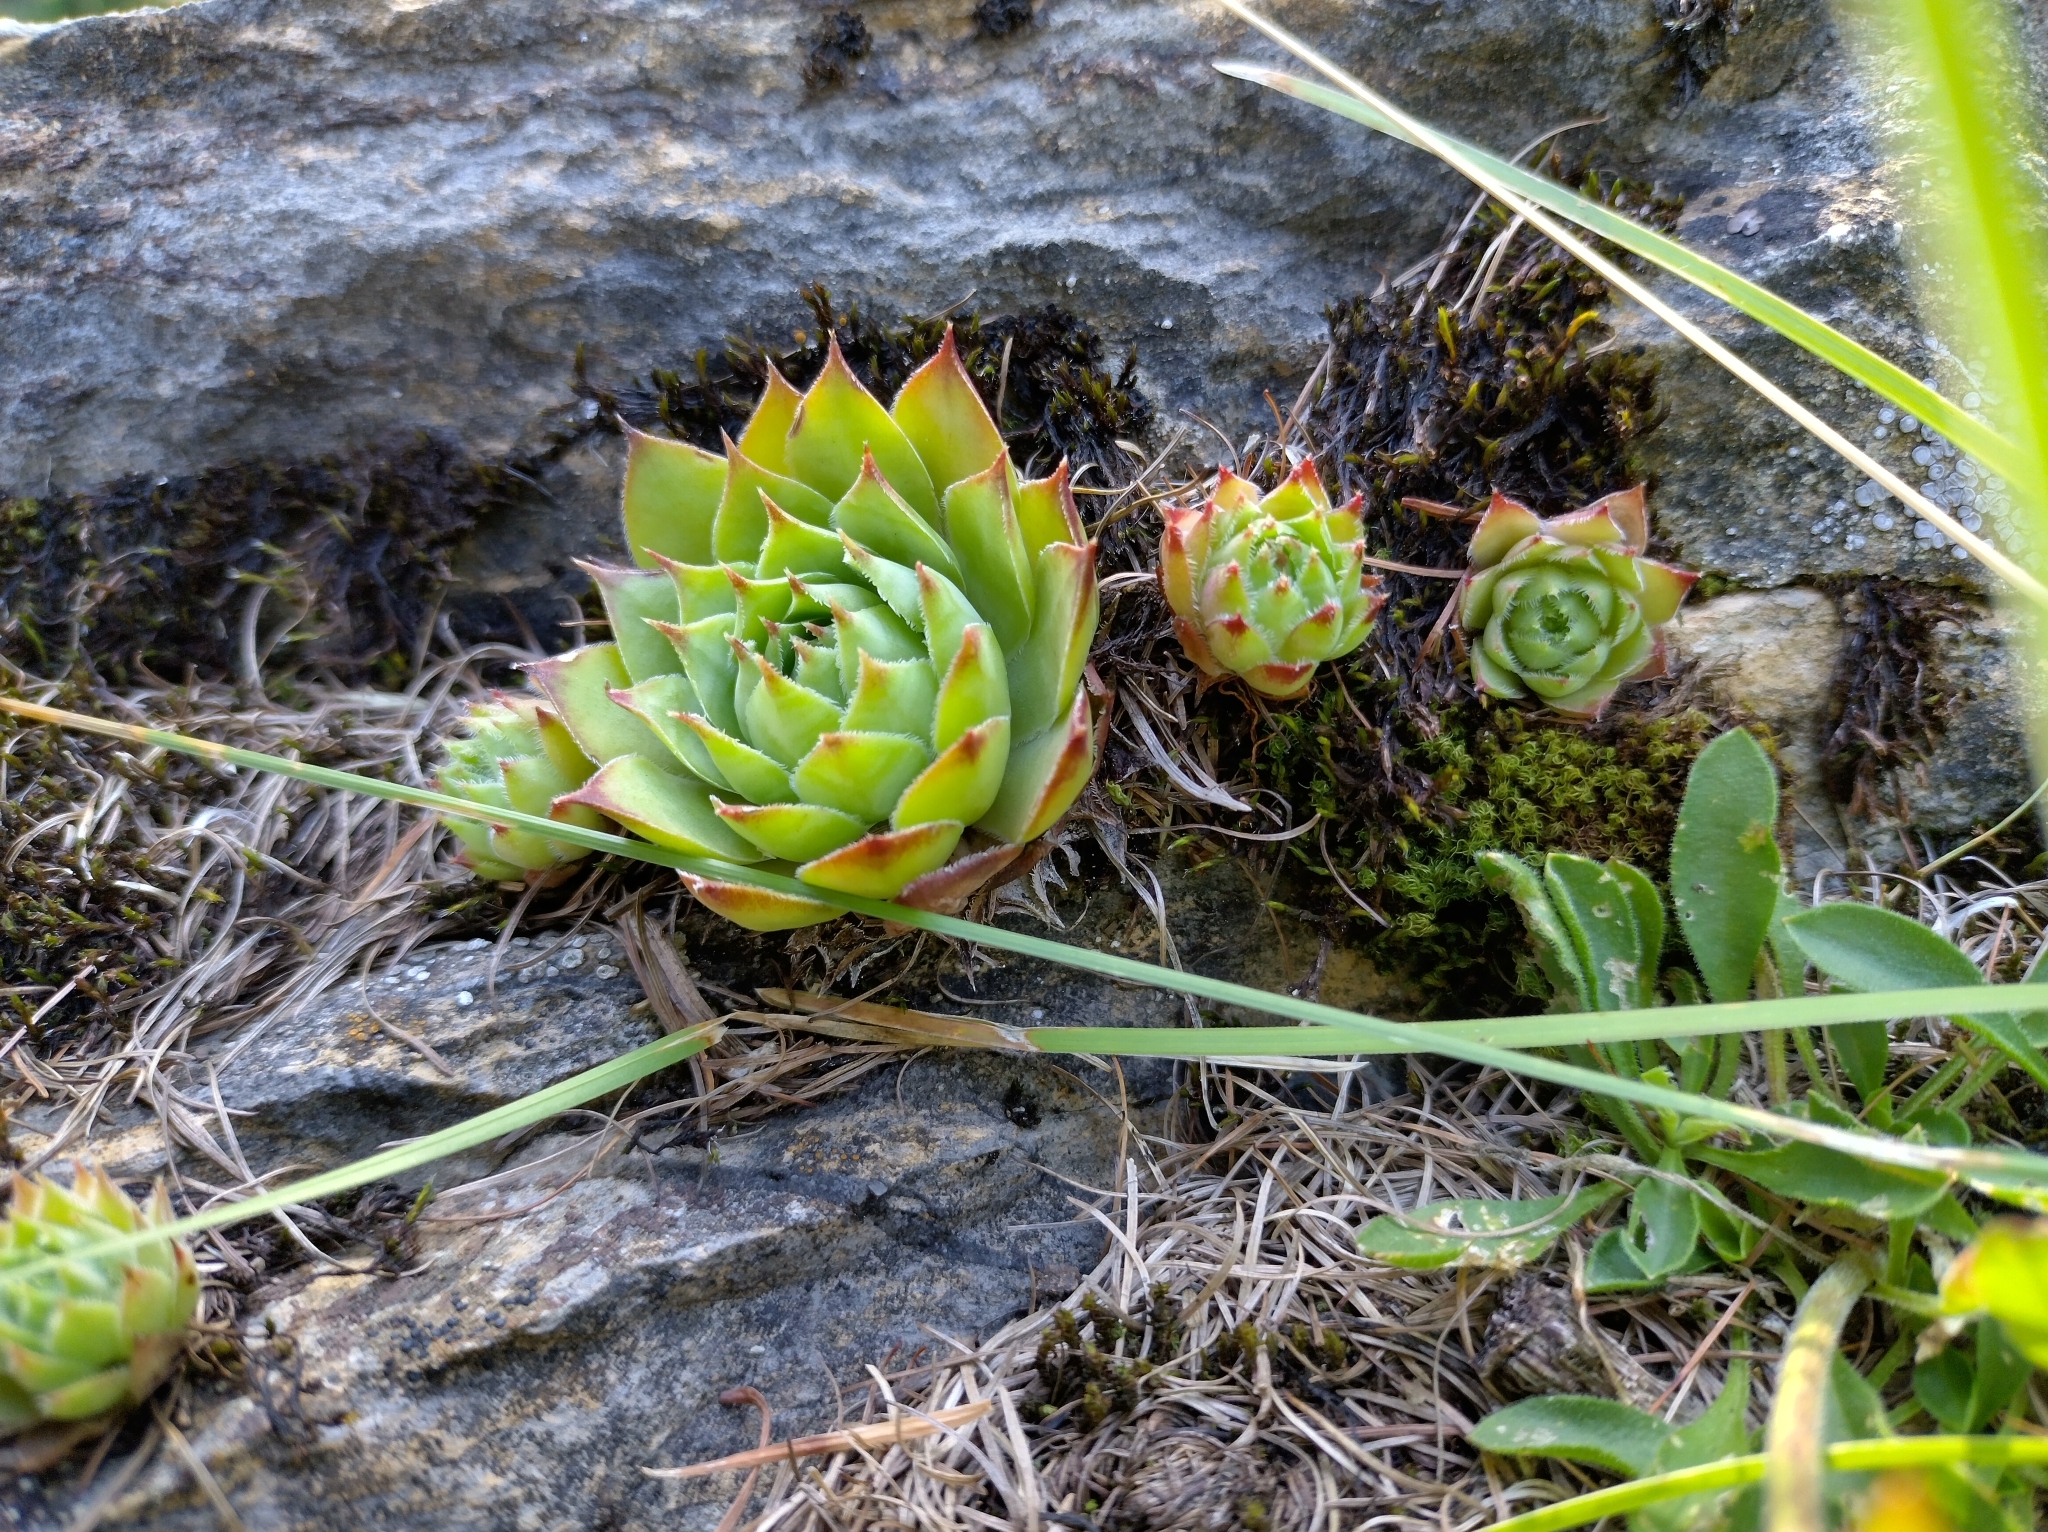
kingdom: Plantae
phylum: Tracheophyta
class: Magnoliopsida
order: Saxifragales
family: Crassulaceae
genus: Sempervivum
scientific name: Sempervivum tectorum
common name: House-leek
